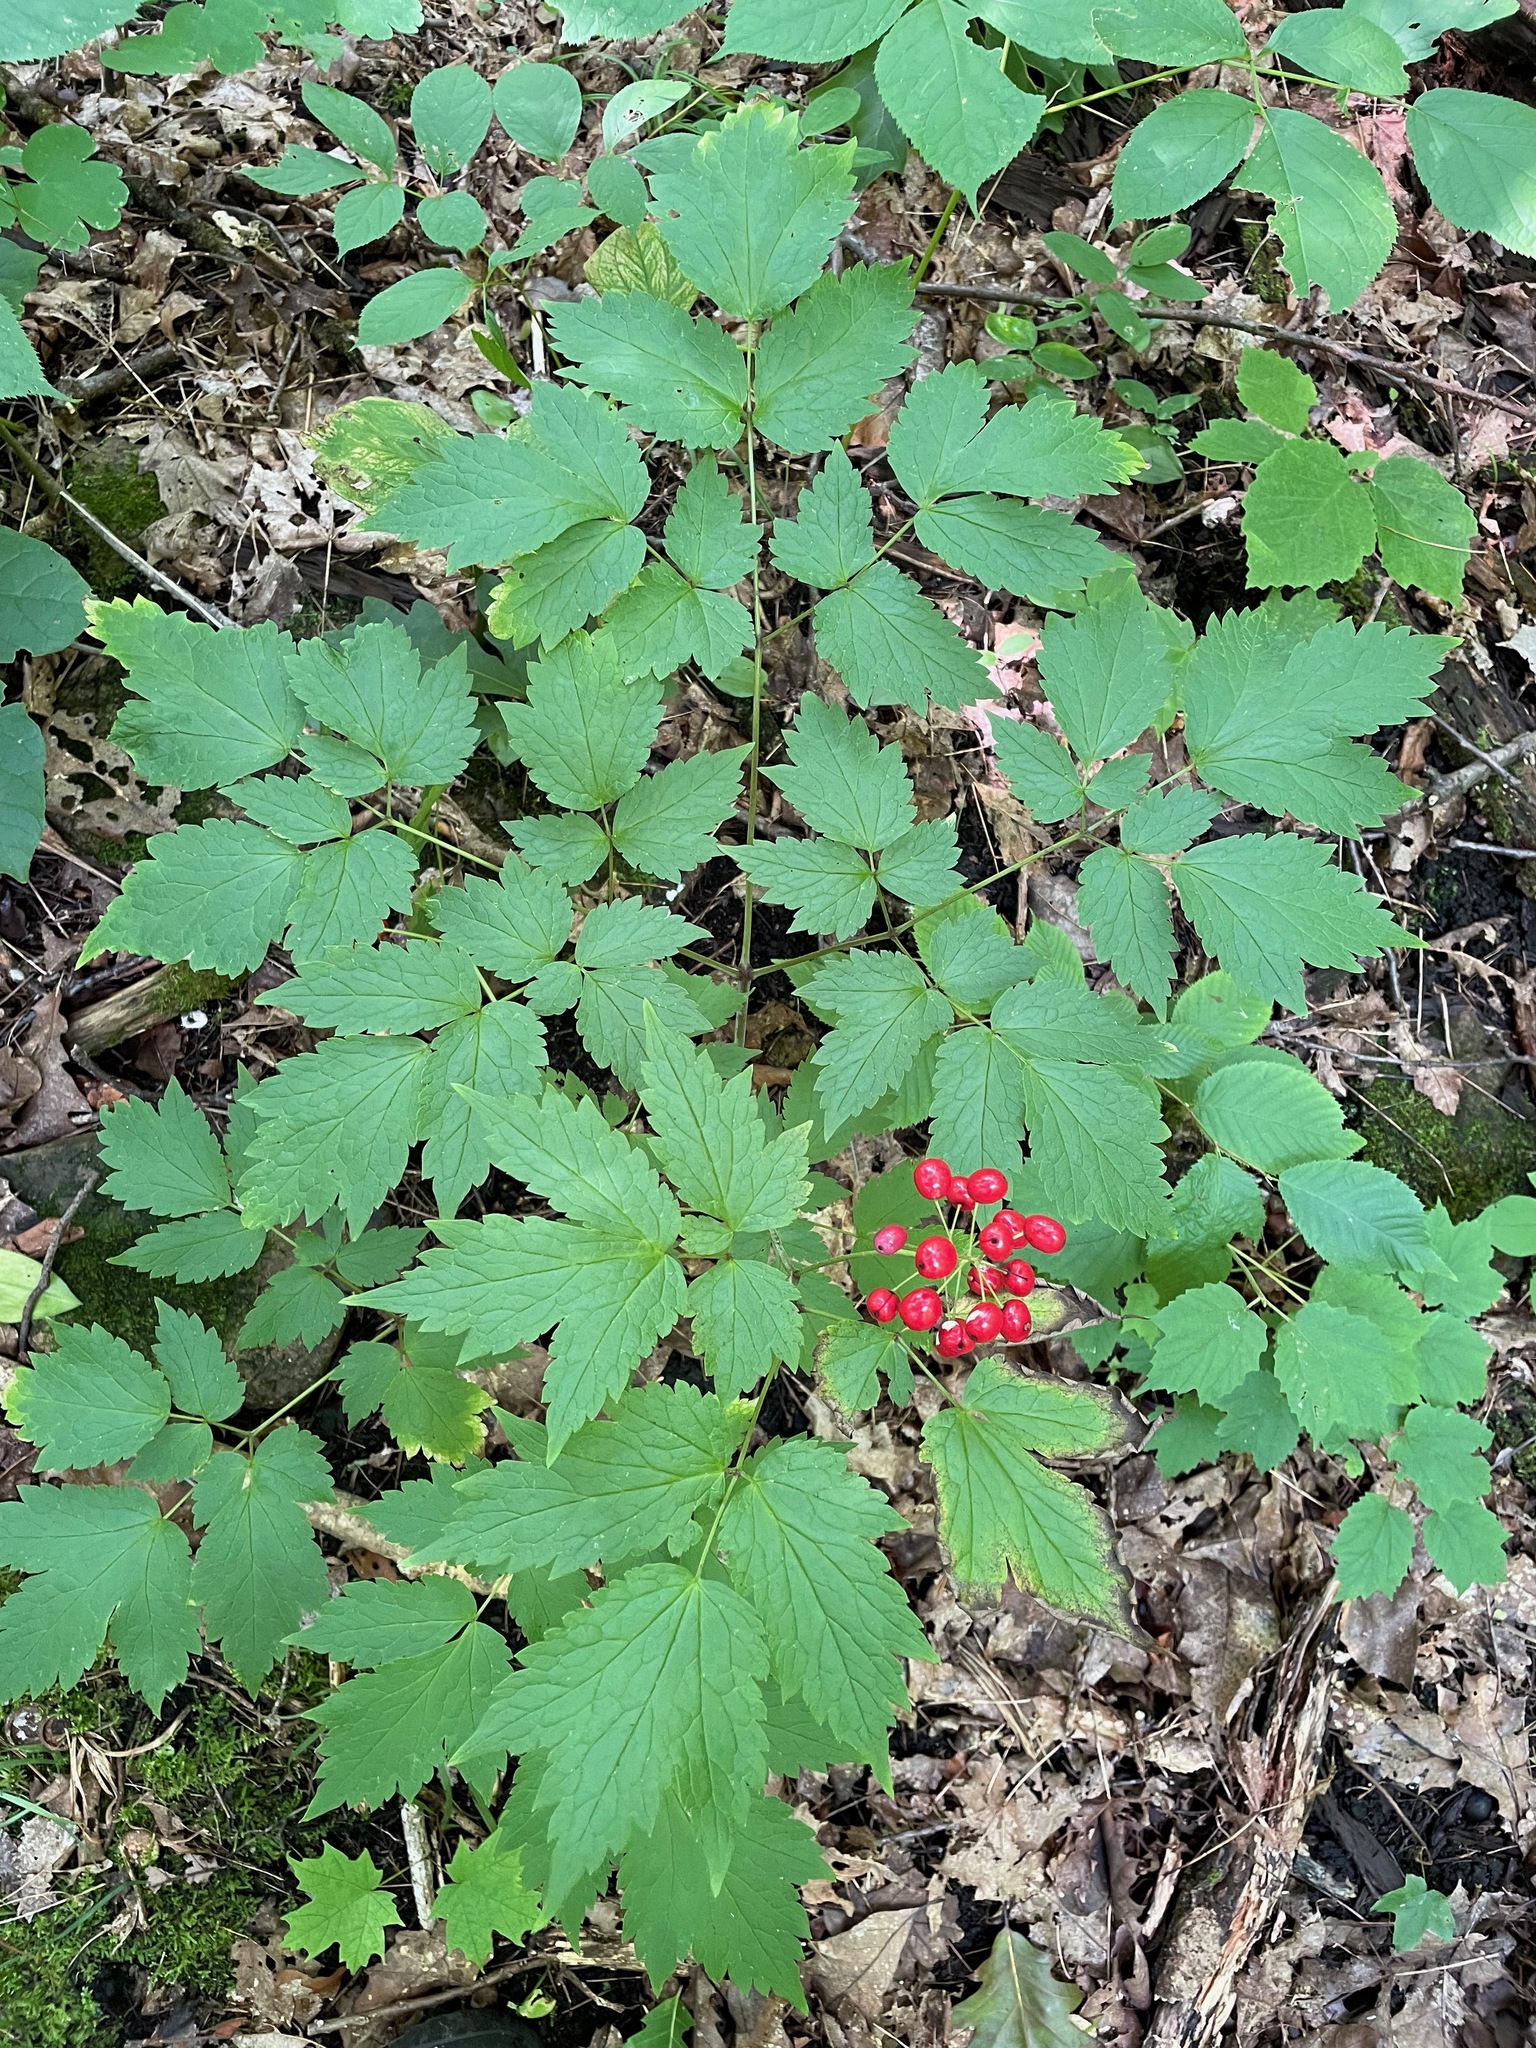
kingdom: Plantae
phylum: Tracheophyta
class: Magnoliopsida
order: Ranunculales
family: Ranunculaceae
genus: Actaea
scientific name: Actaea rubra
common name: Red baneberry
